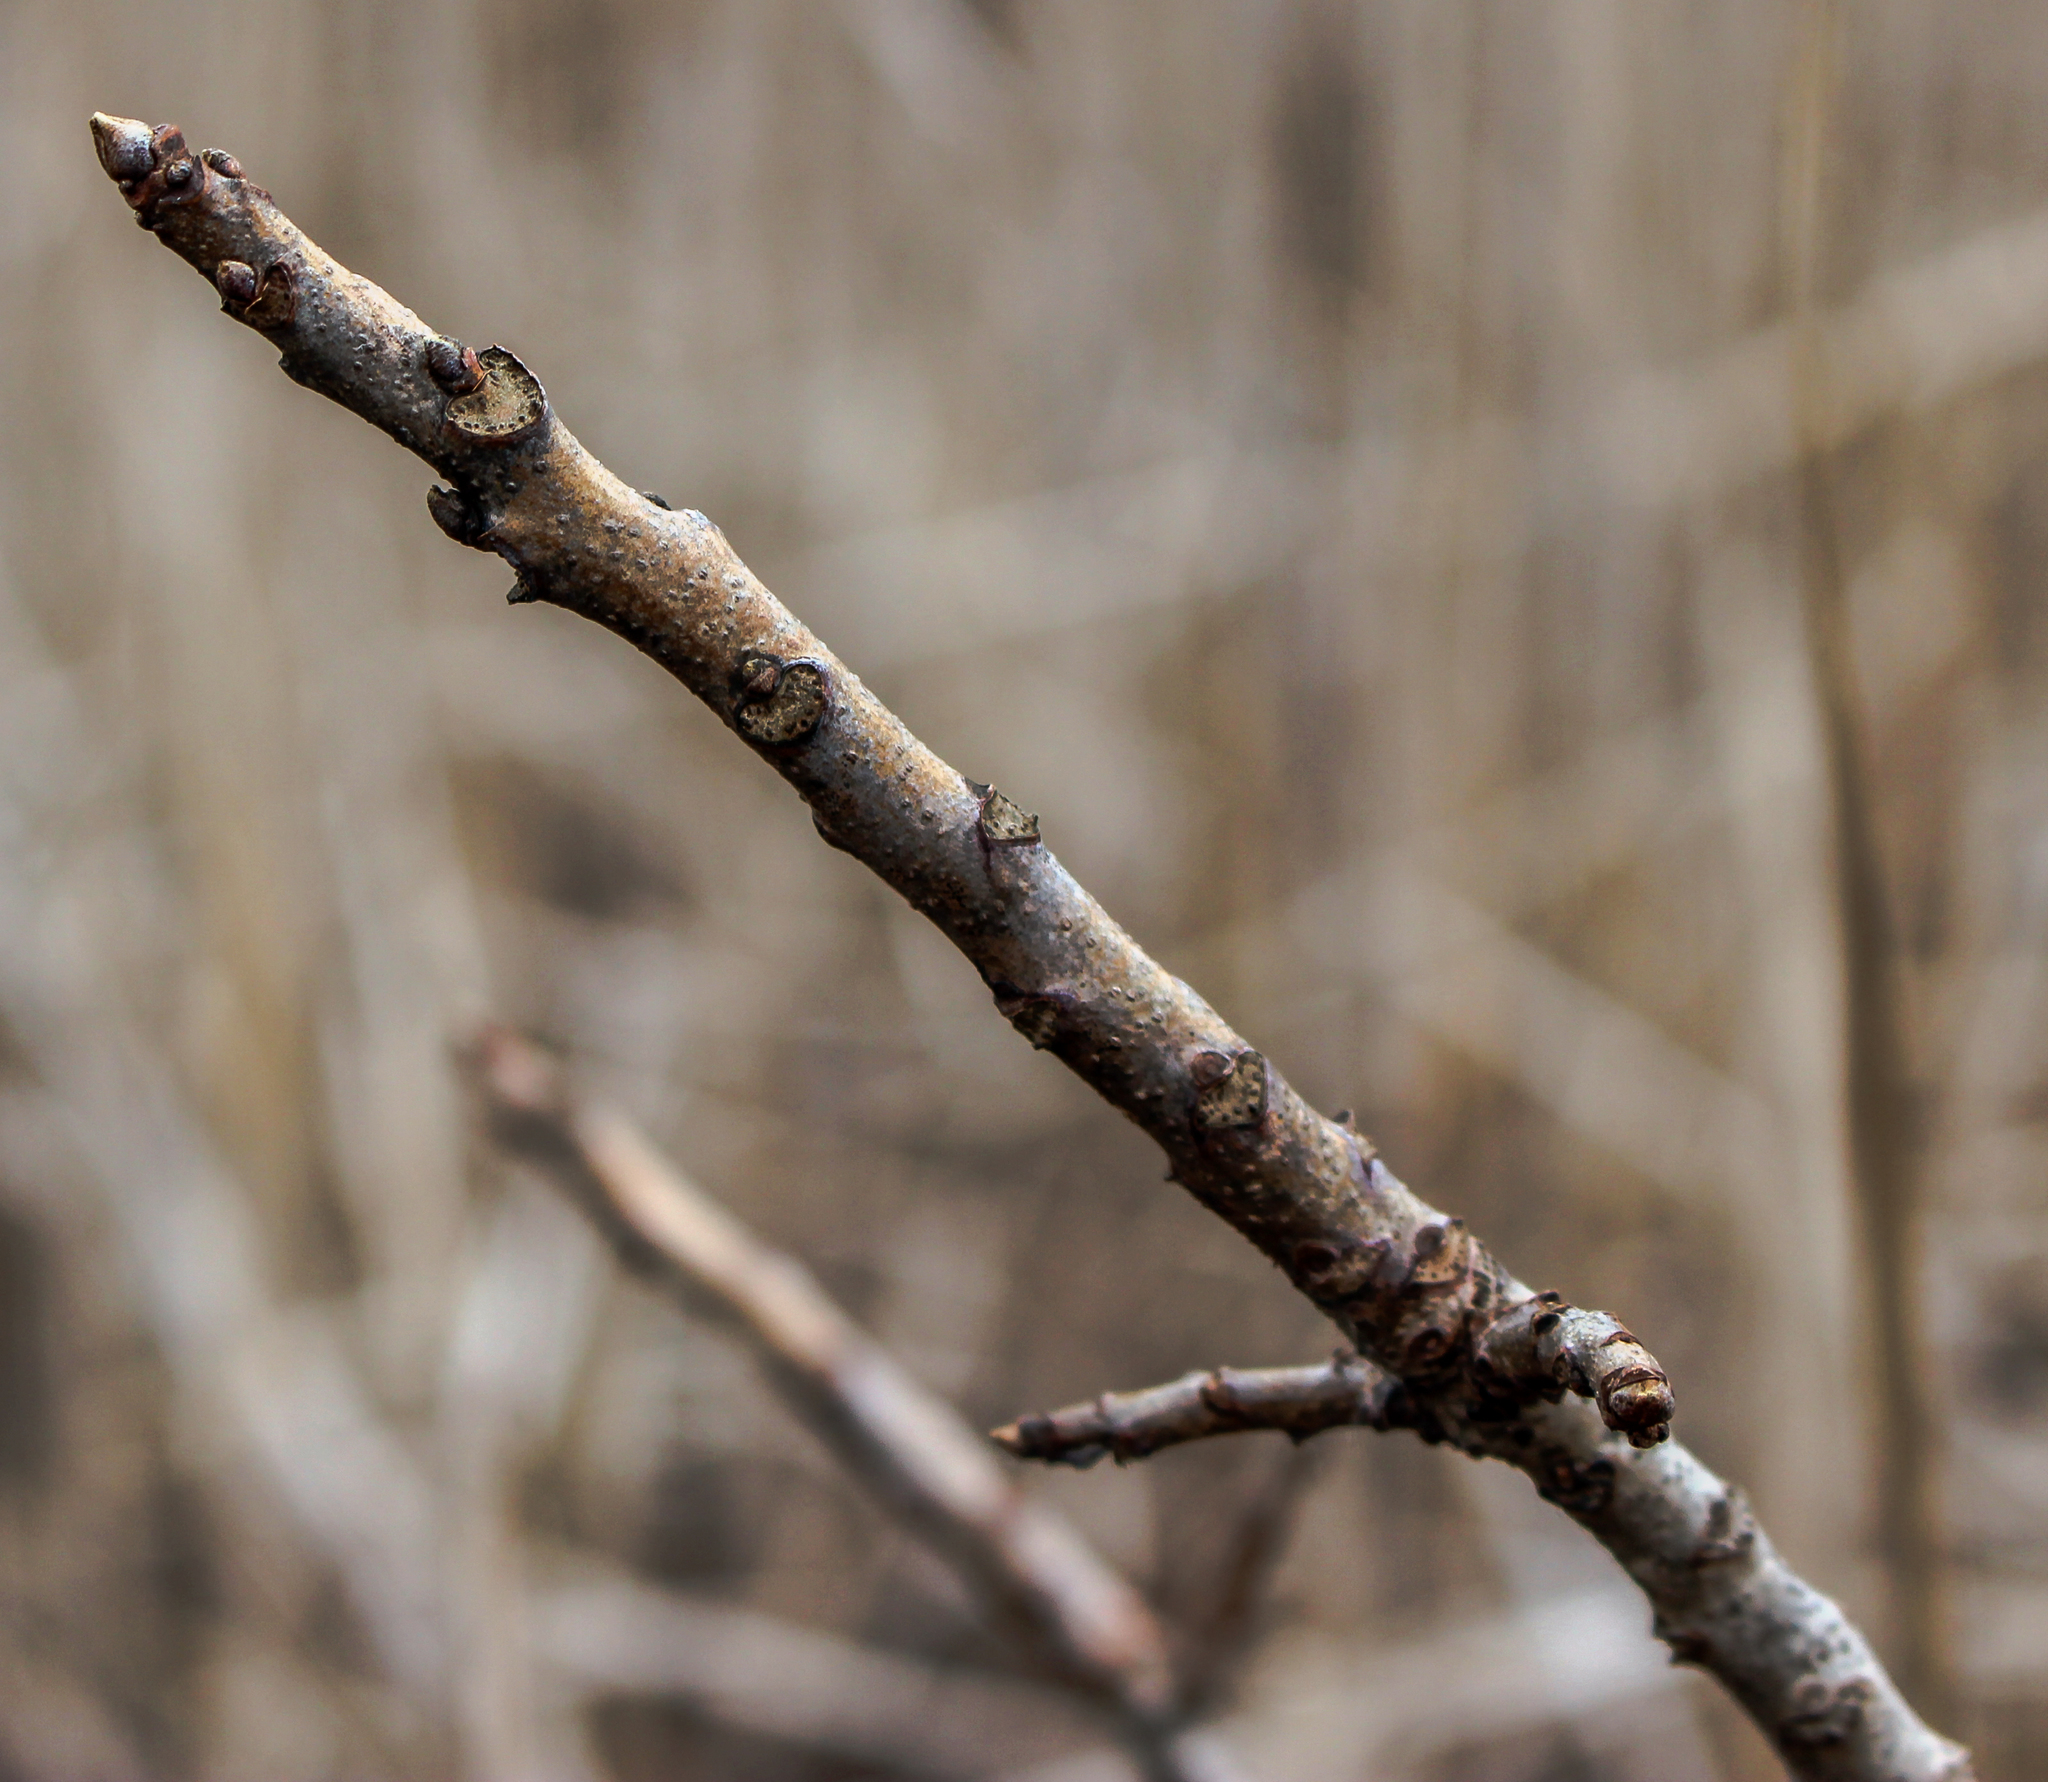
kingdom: Plantae
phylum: Tracheophyta
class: Magnoliopsida
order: Sapindales
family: Anacardiaceae
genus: Toxicodendron
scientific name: Toxicodendron vernix
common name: Poison sumac
